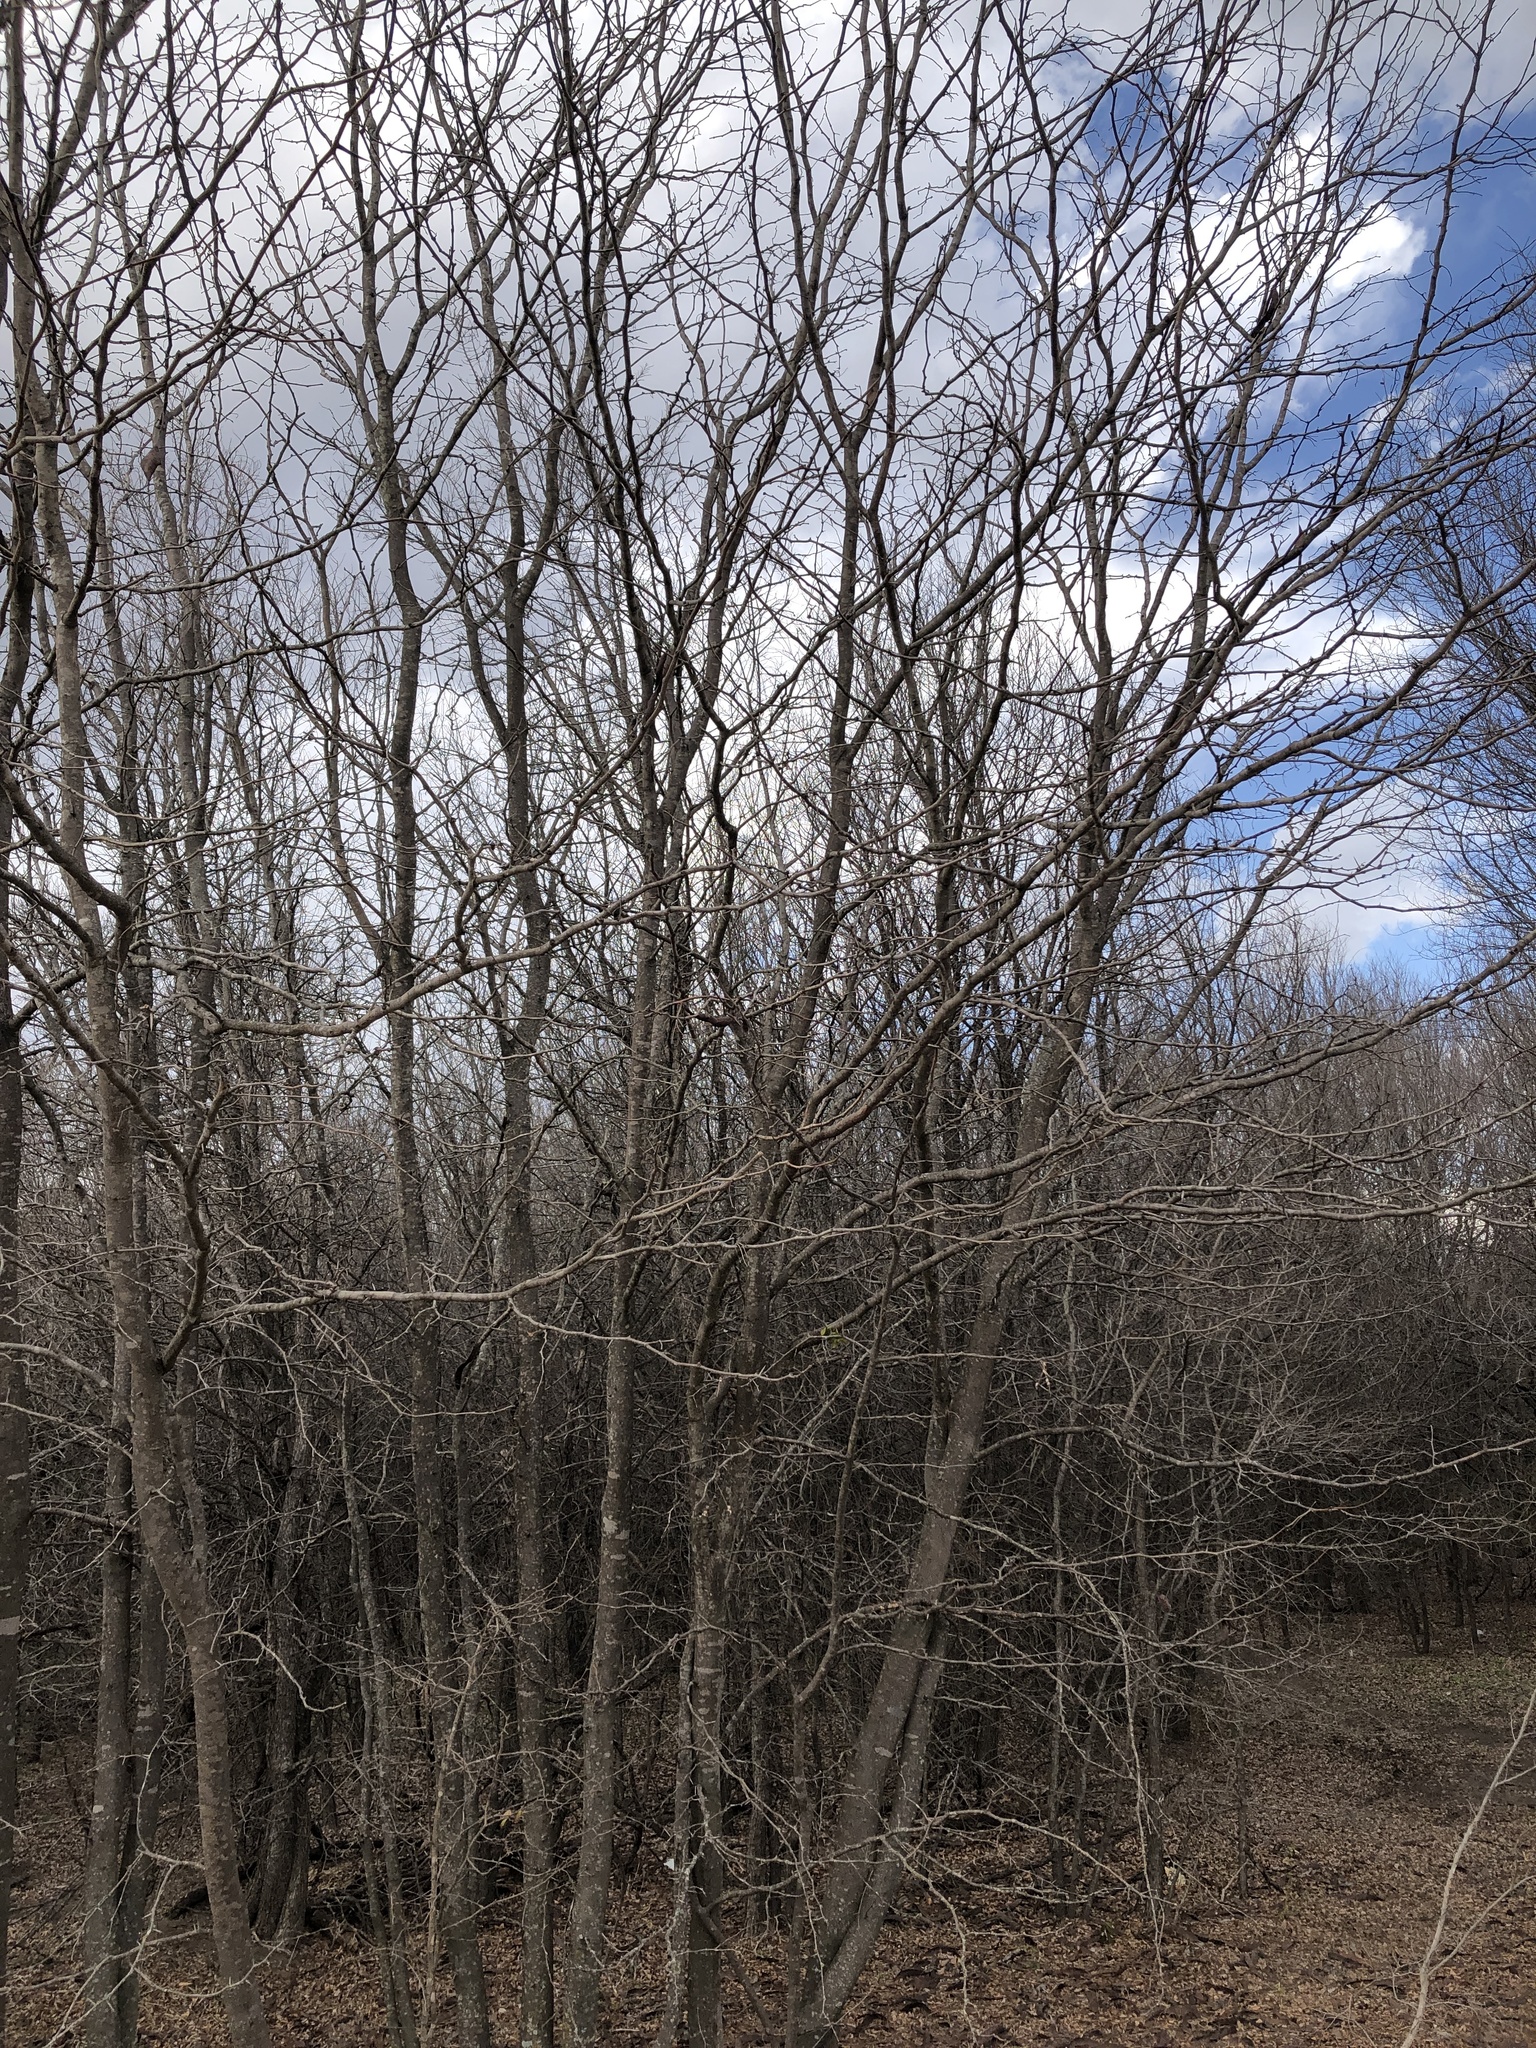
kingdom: Plantae
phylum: Tracheophyta
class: Magnoliopsida
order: Fabales
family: Fabaceae
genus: Gleditsia
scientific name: Gleditsia triacanthos
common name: Common honeylocust
